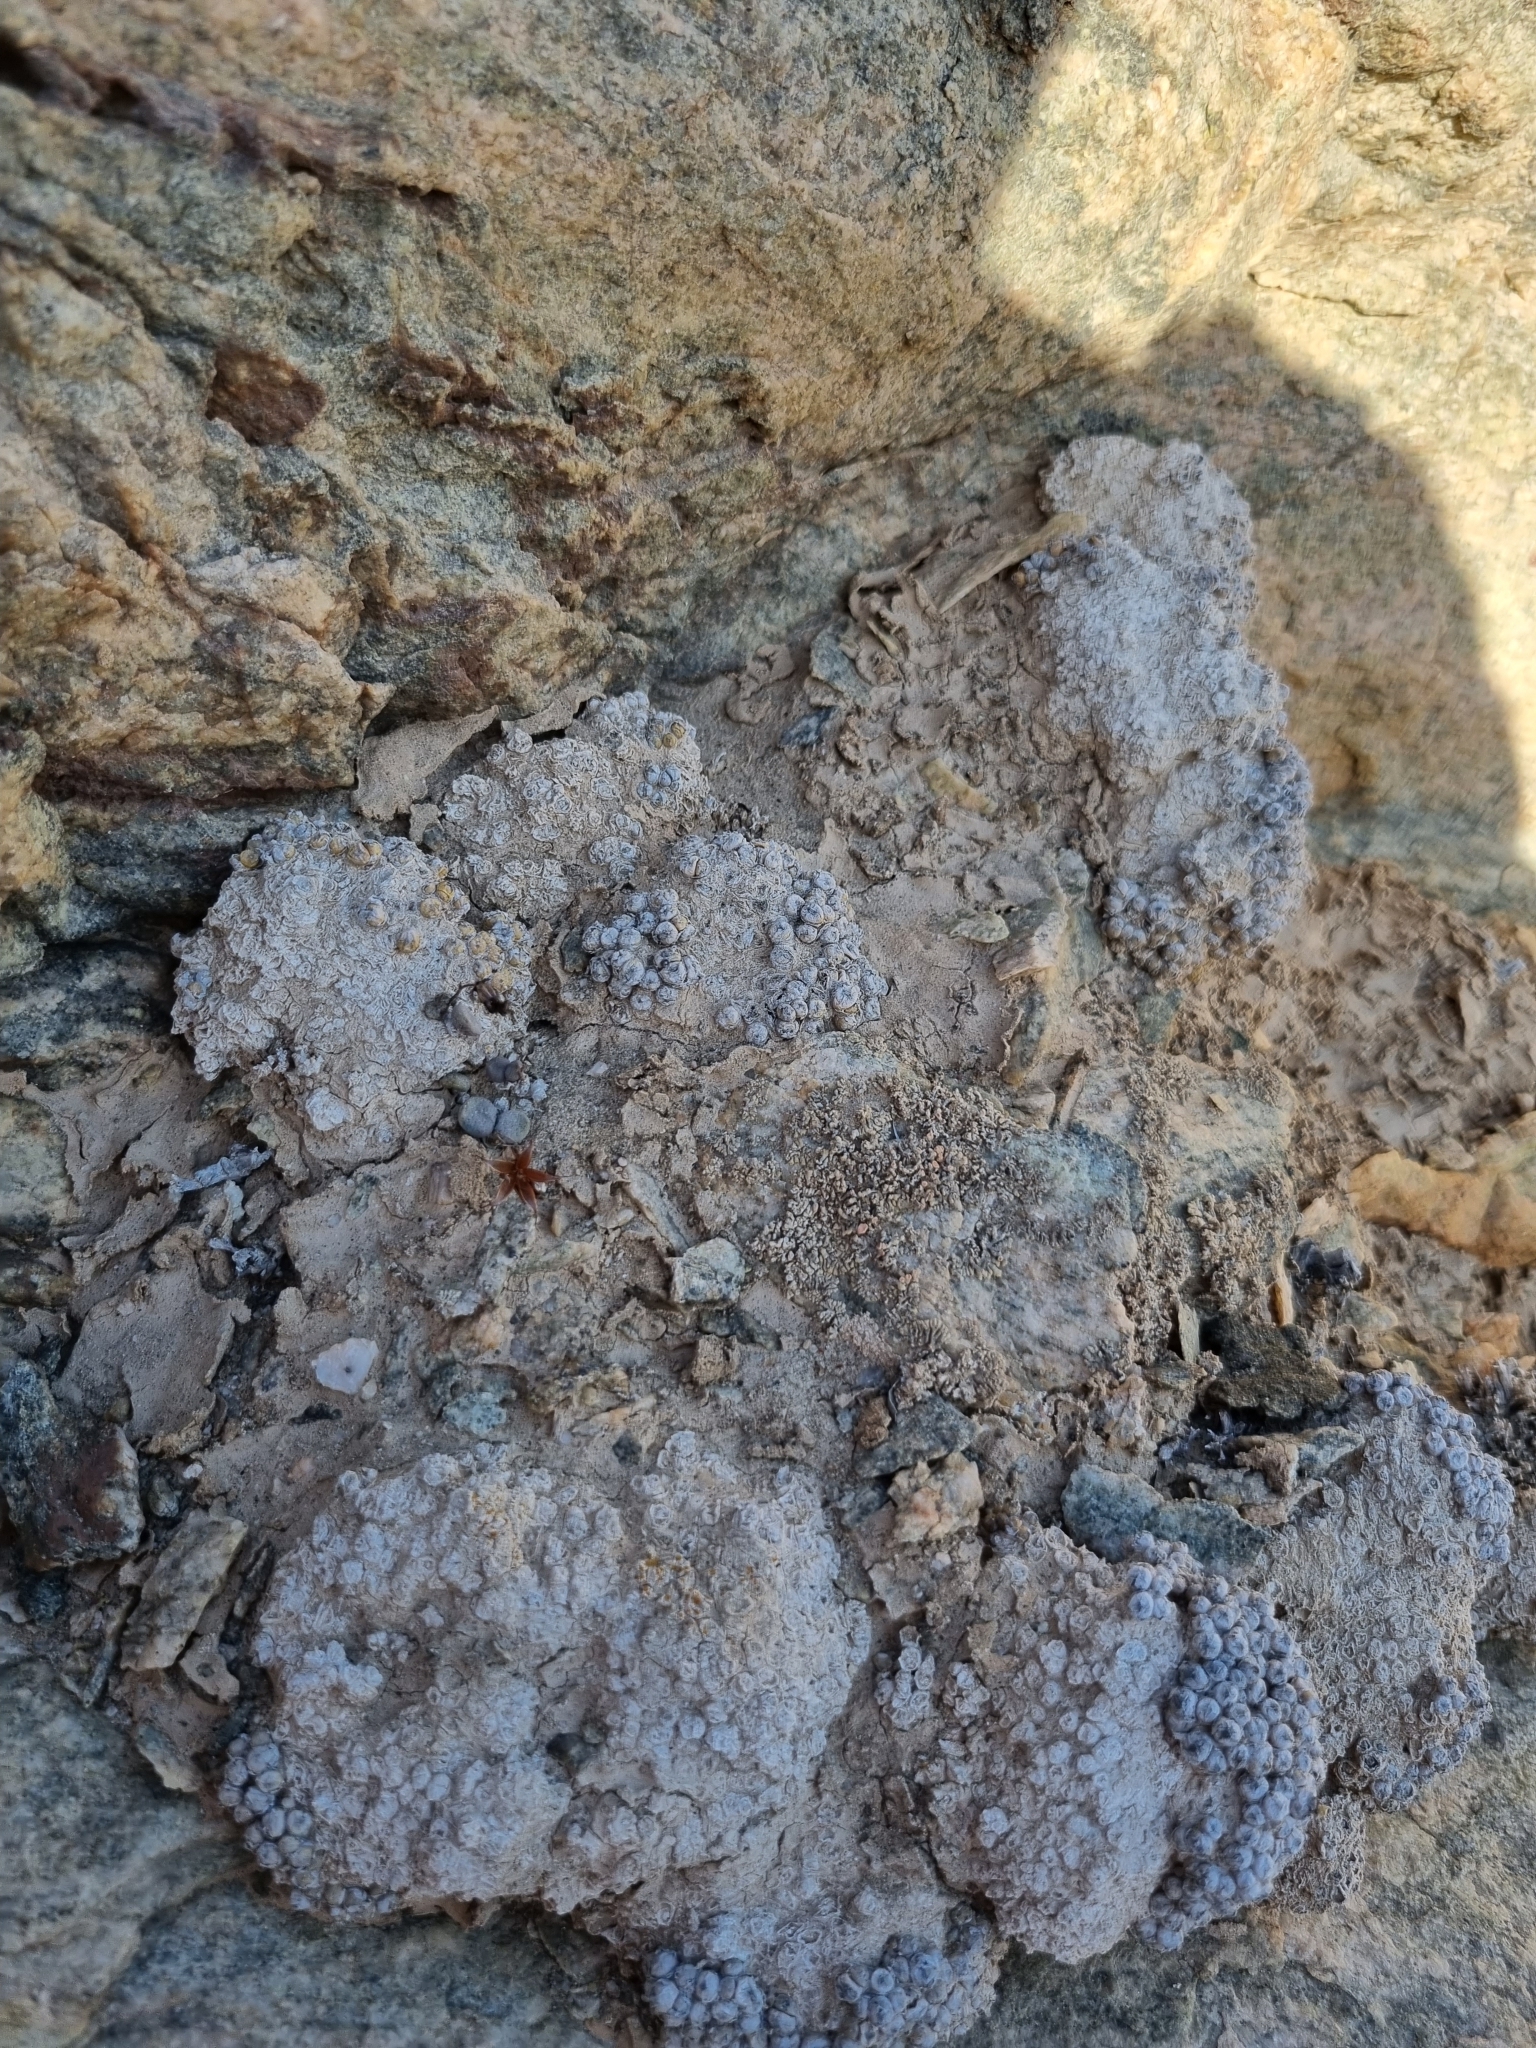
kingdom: Plantae
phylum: Tracheophyta
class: Magnoliopsida
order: Caryophyllales
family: Aizoaceae
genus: Conophytum
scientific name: Conophytum saxetanum
